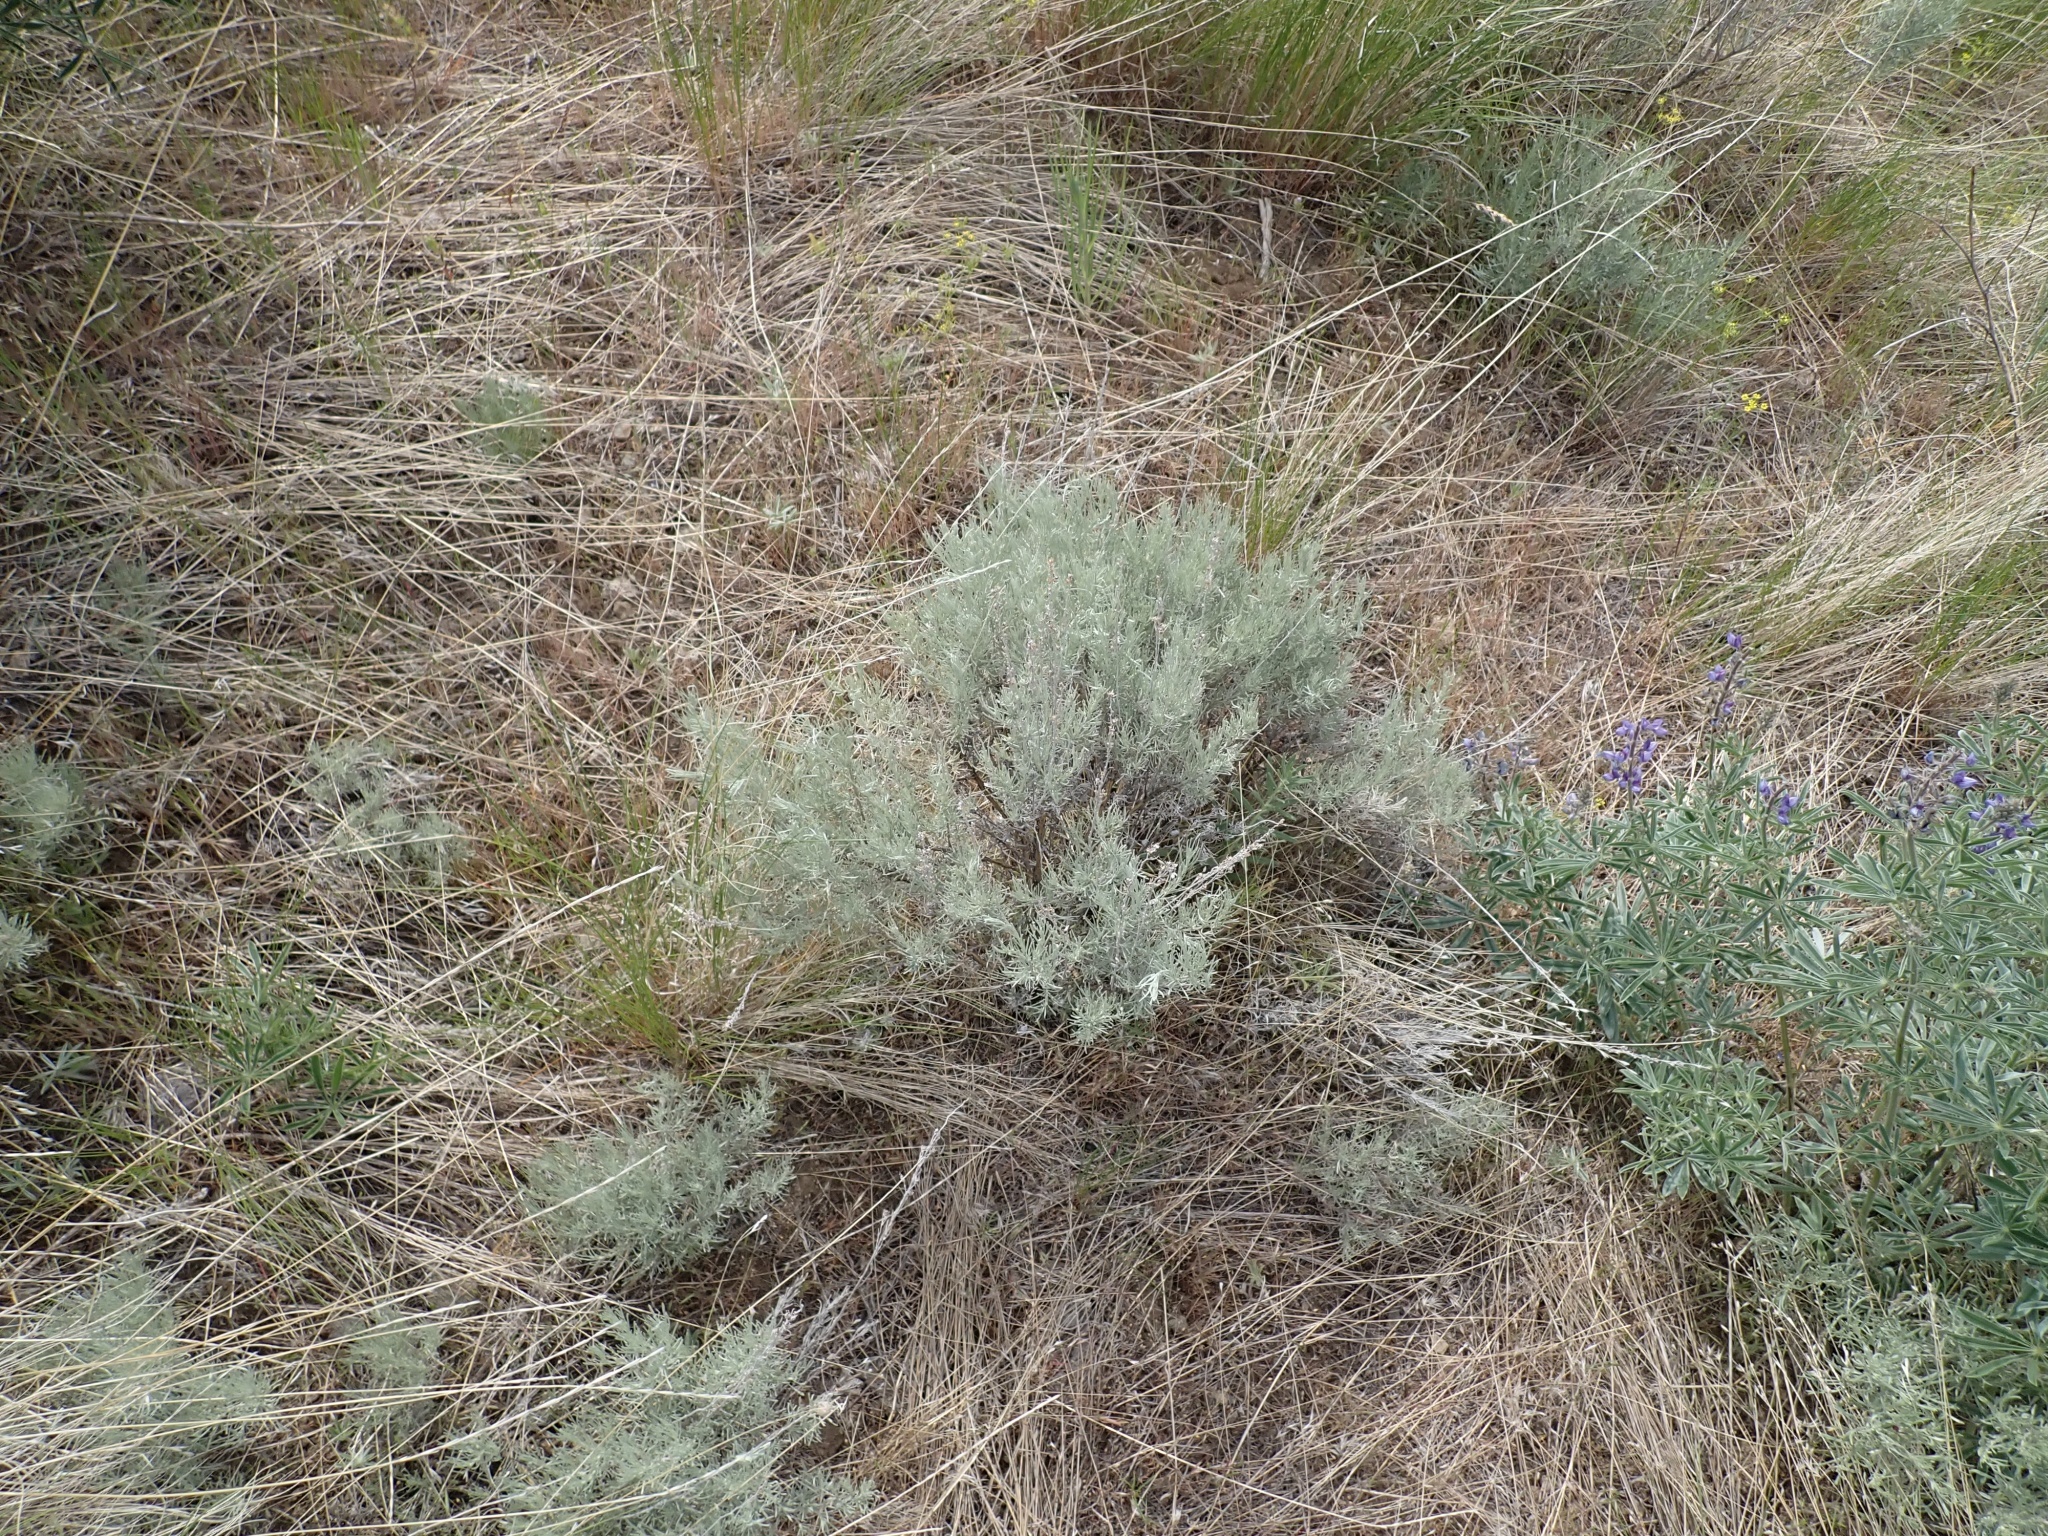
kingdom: Plantae
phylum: Tracheophyta
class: Magnoliopsida
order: Asterales
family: Asteraceae
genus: Ericameria
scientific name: Ericameria nauseosa
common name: Rubber rabbitbrush
